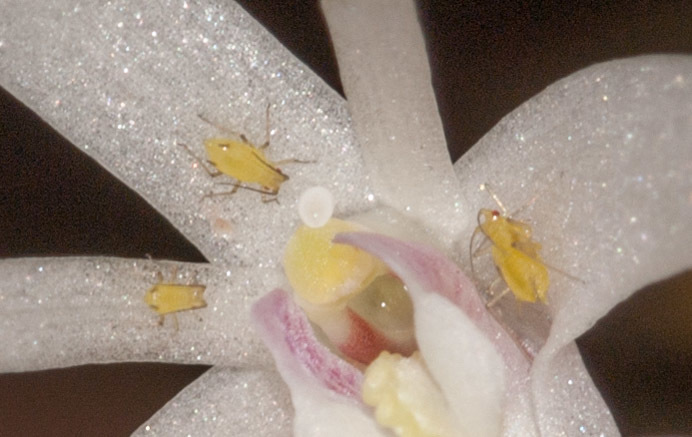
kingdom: Animalia
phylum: Arthropoda
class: Insecta
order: Hemiptera
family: Aphididae
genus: Sitobion
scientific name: Sitobion luteum
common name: Orchid aphid
